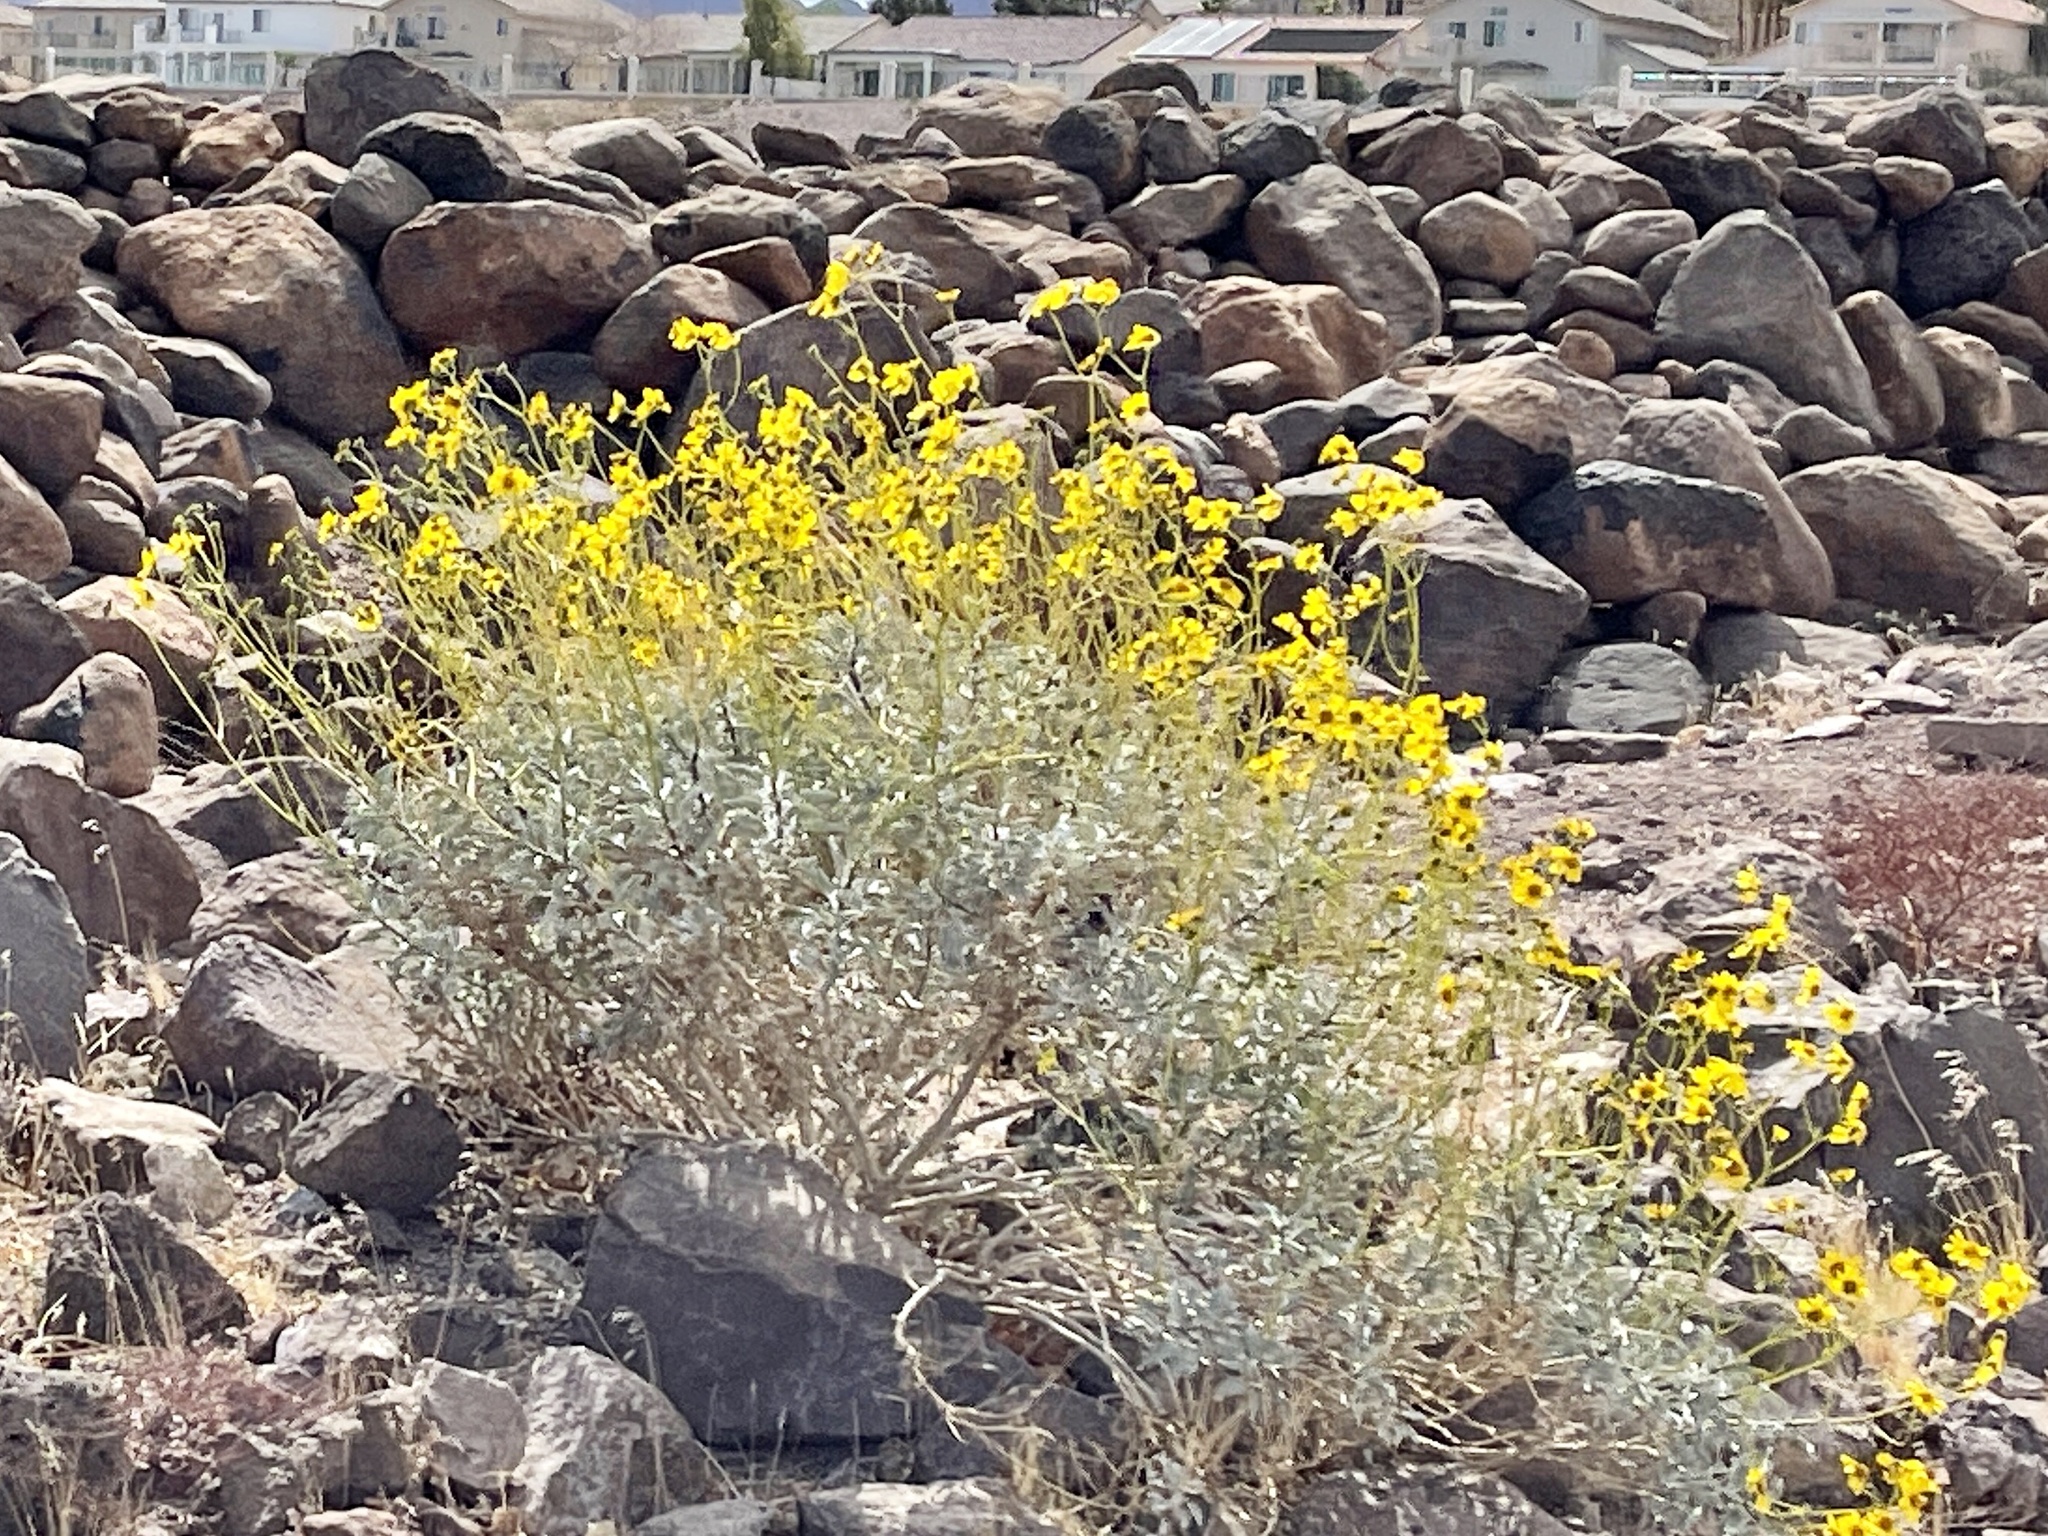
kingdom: Plantae
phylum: Tracheophyta
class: Magnoliopsida
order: Asterales
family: Asteraceae
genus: Encelia
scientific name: Encelia farinosa
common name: Brittlebush
